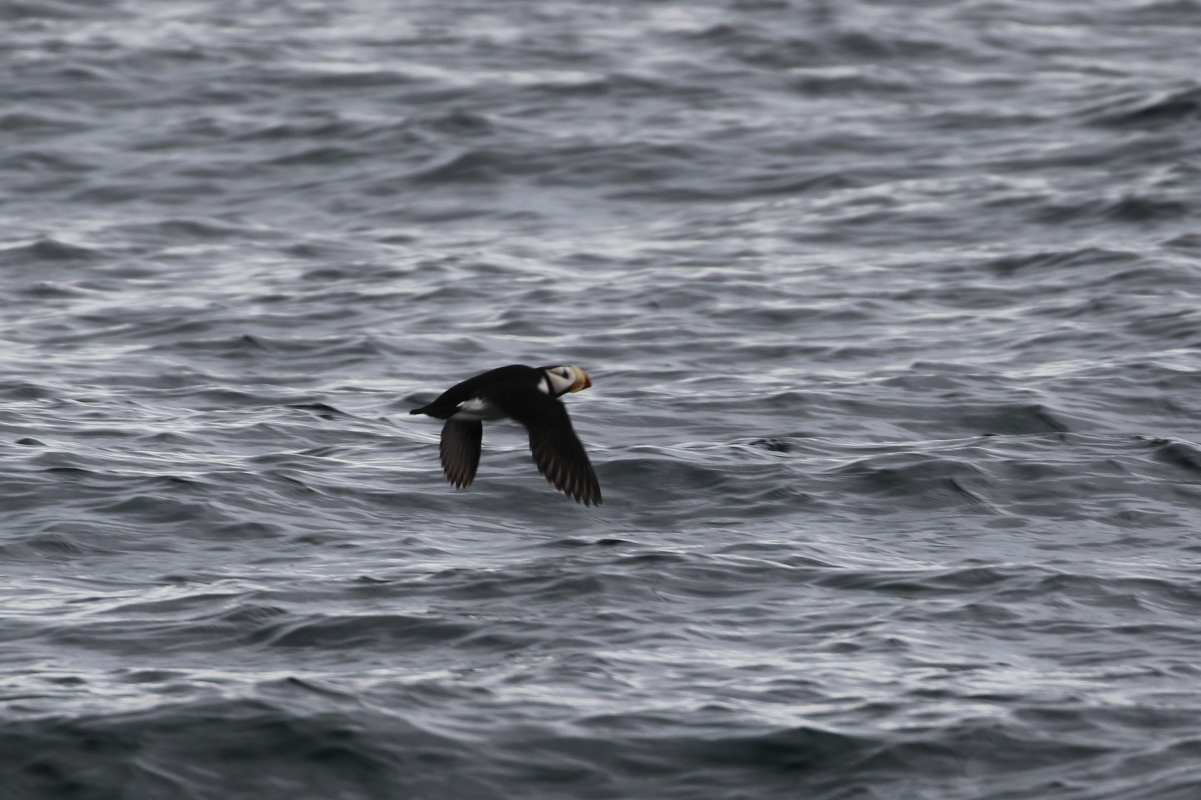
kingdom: Animalia
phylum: Chordata
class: Aves
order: Charadriiformes
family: Alcidae
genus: Fratercula
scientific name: Fratercula corniculata
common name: Horned puffin
